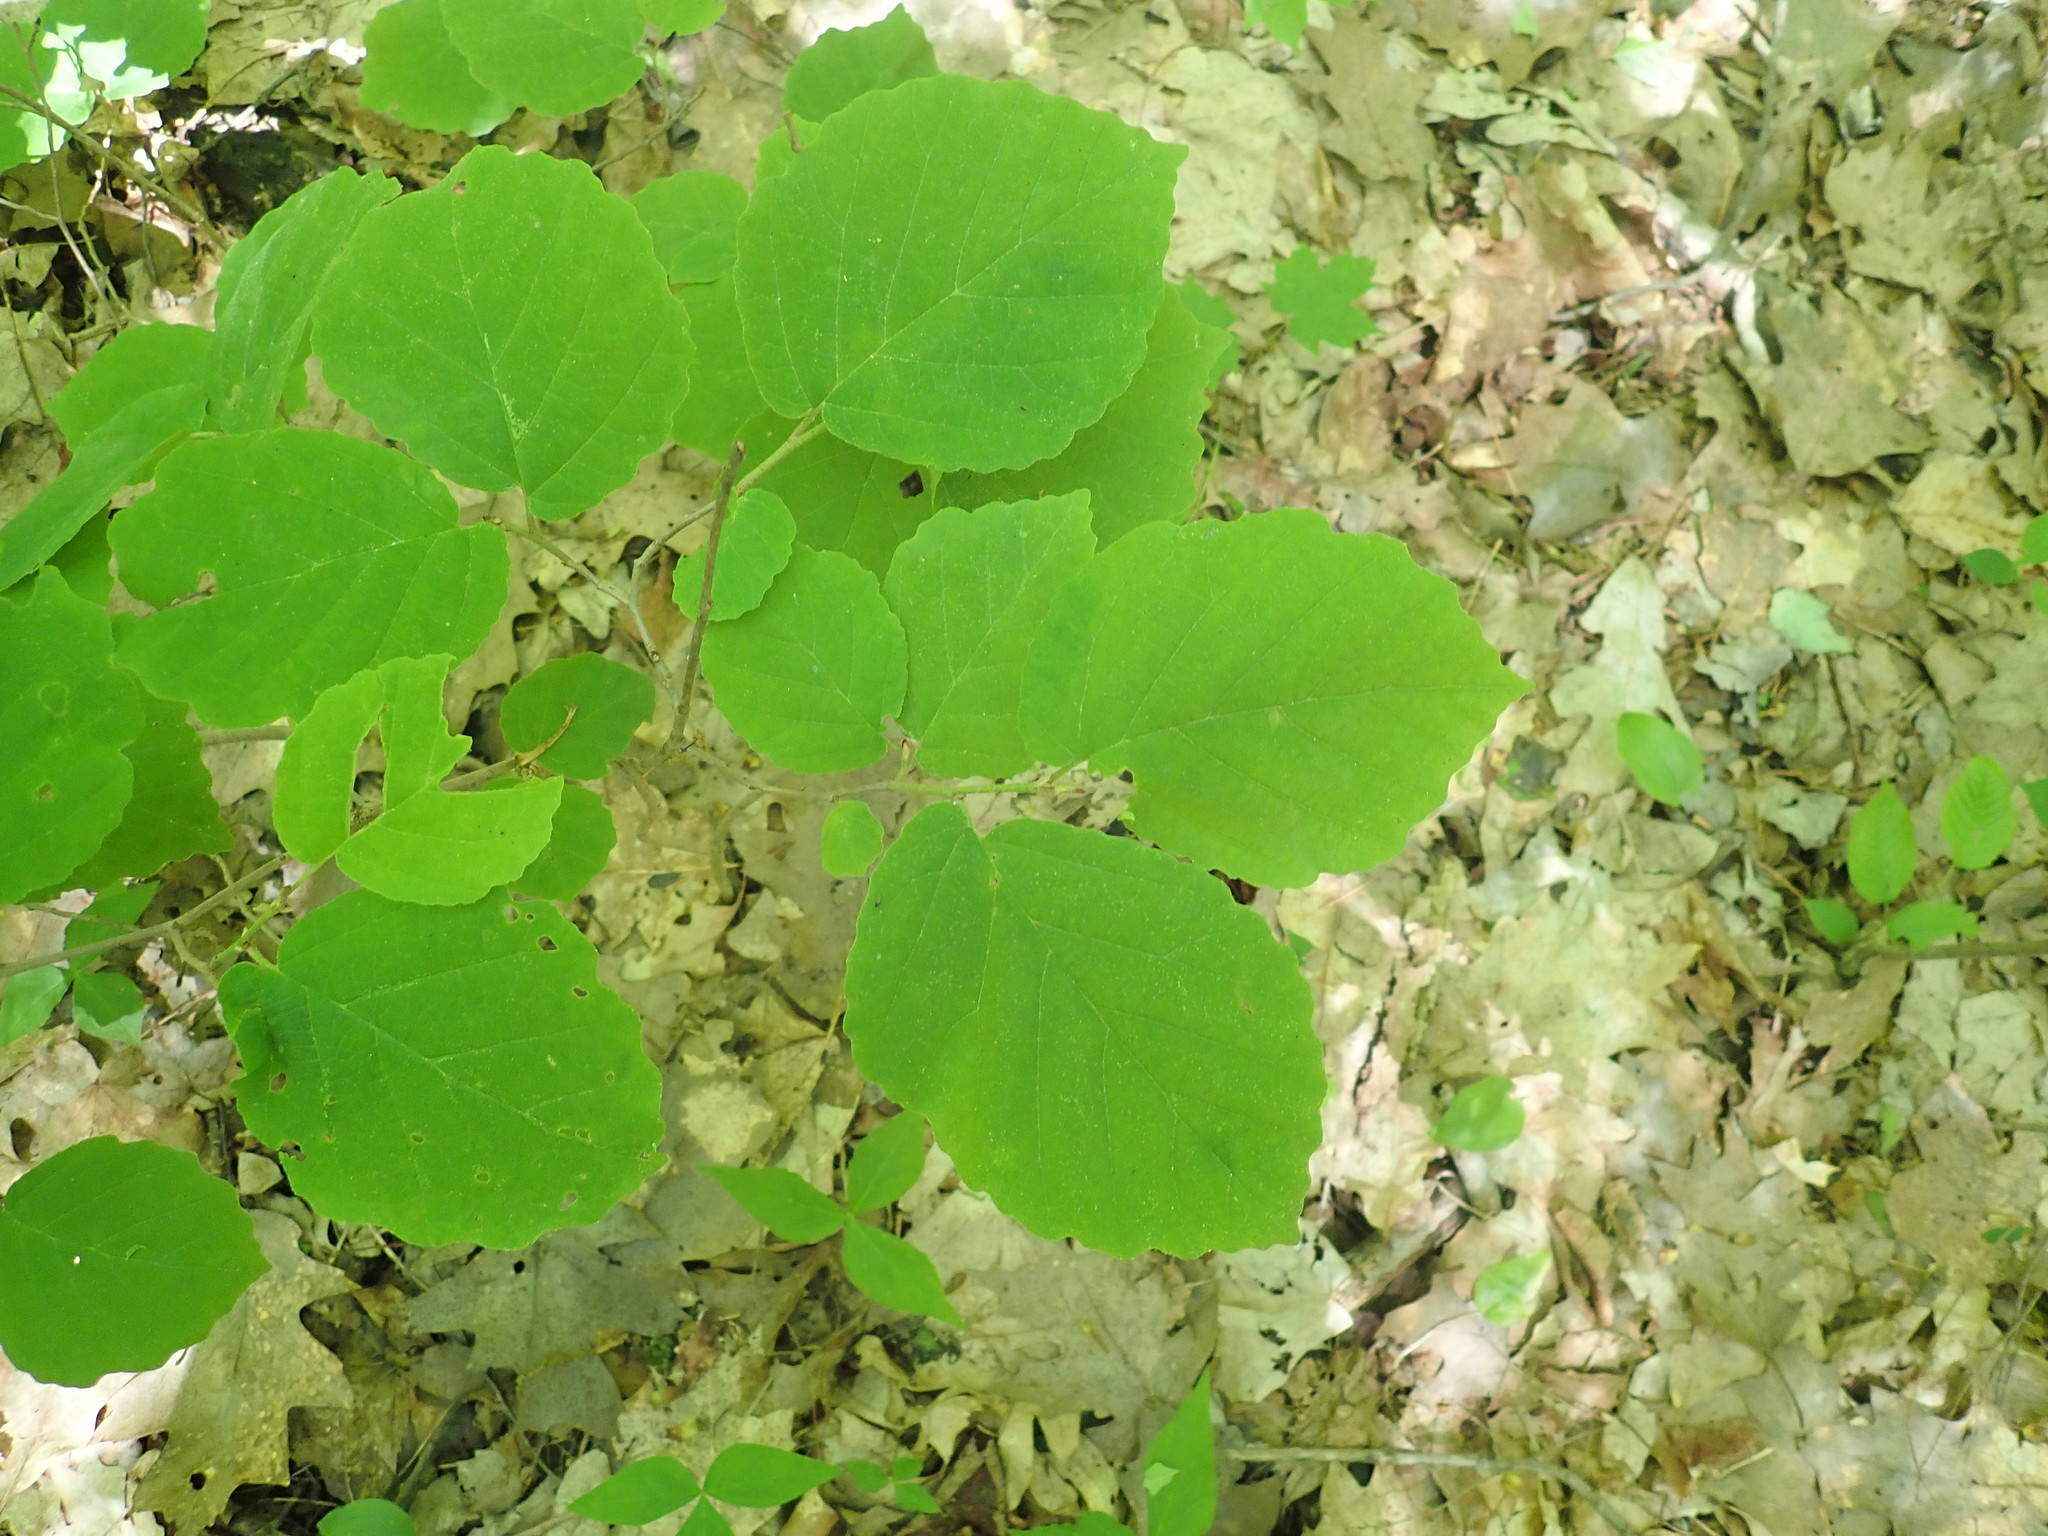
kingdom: Plantae
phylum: Tracheophyta
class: Magnoliopsida
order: Saxifragales
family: Hamamelidaceae
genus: Hamamelis
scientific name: Hamamelis virginiana
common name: Witch-hazel
